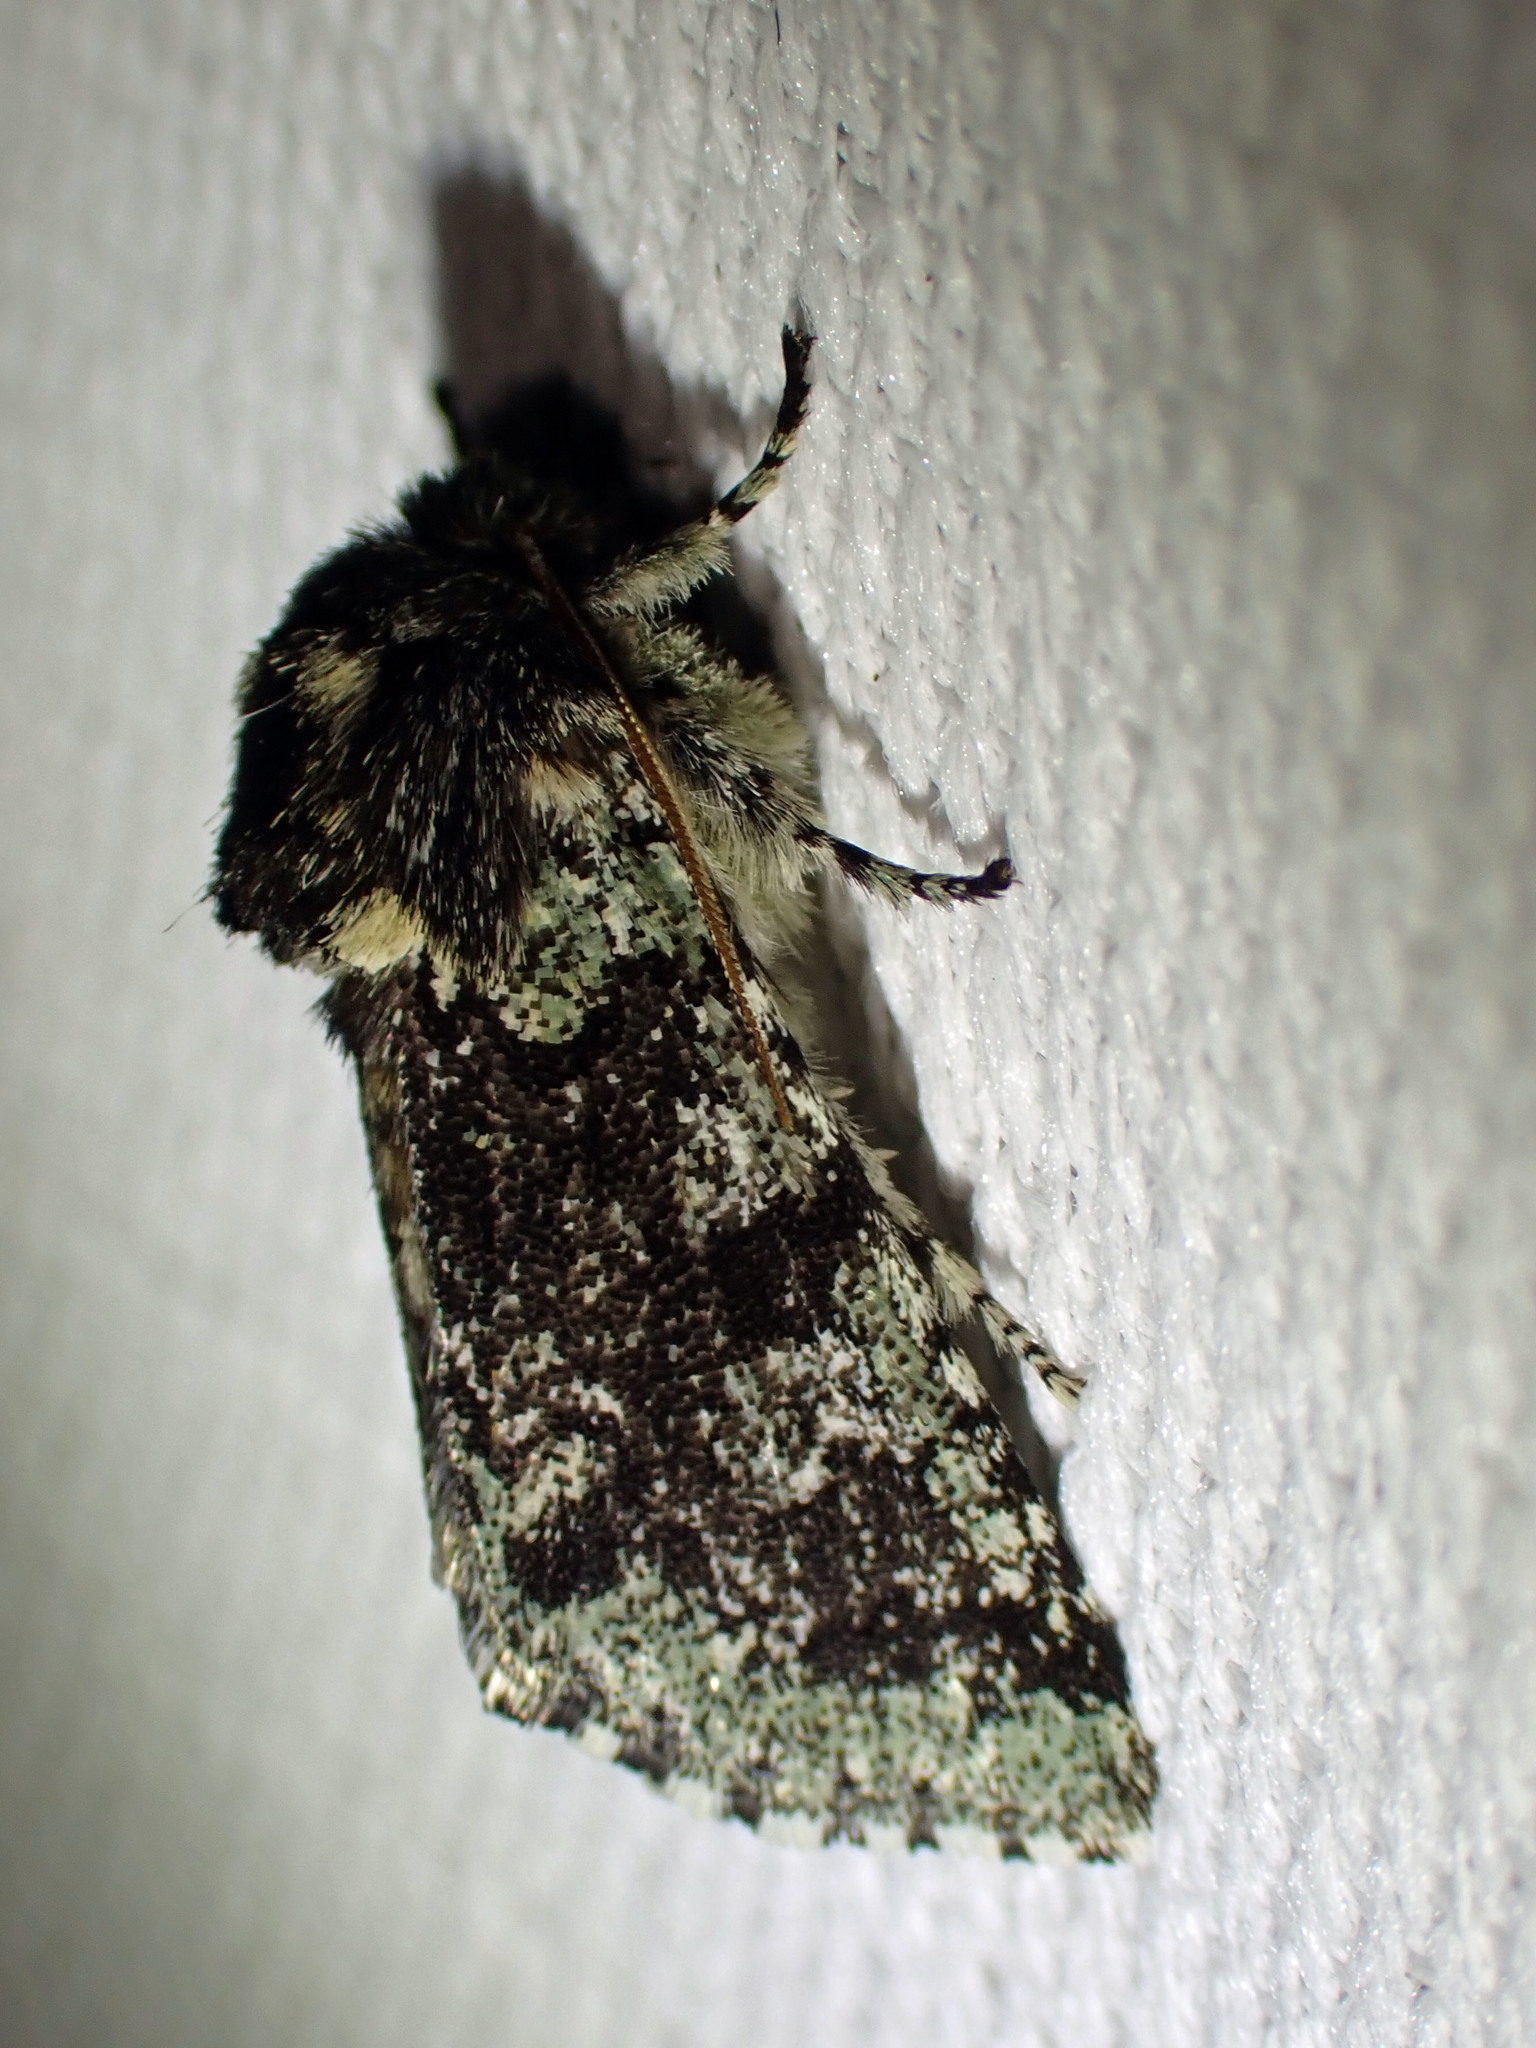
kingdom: Animalia
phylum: Arthropoda
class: Insecta
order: Lepidoptera
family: Noctuidae
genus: Feralia
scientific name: Feralia major
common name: Major sallow
